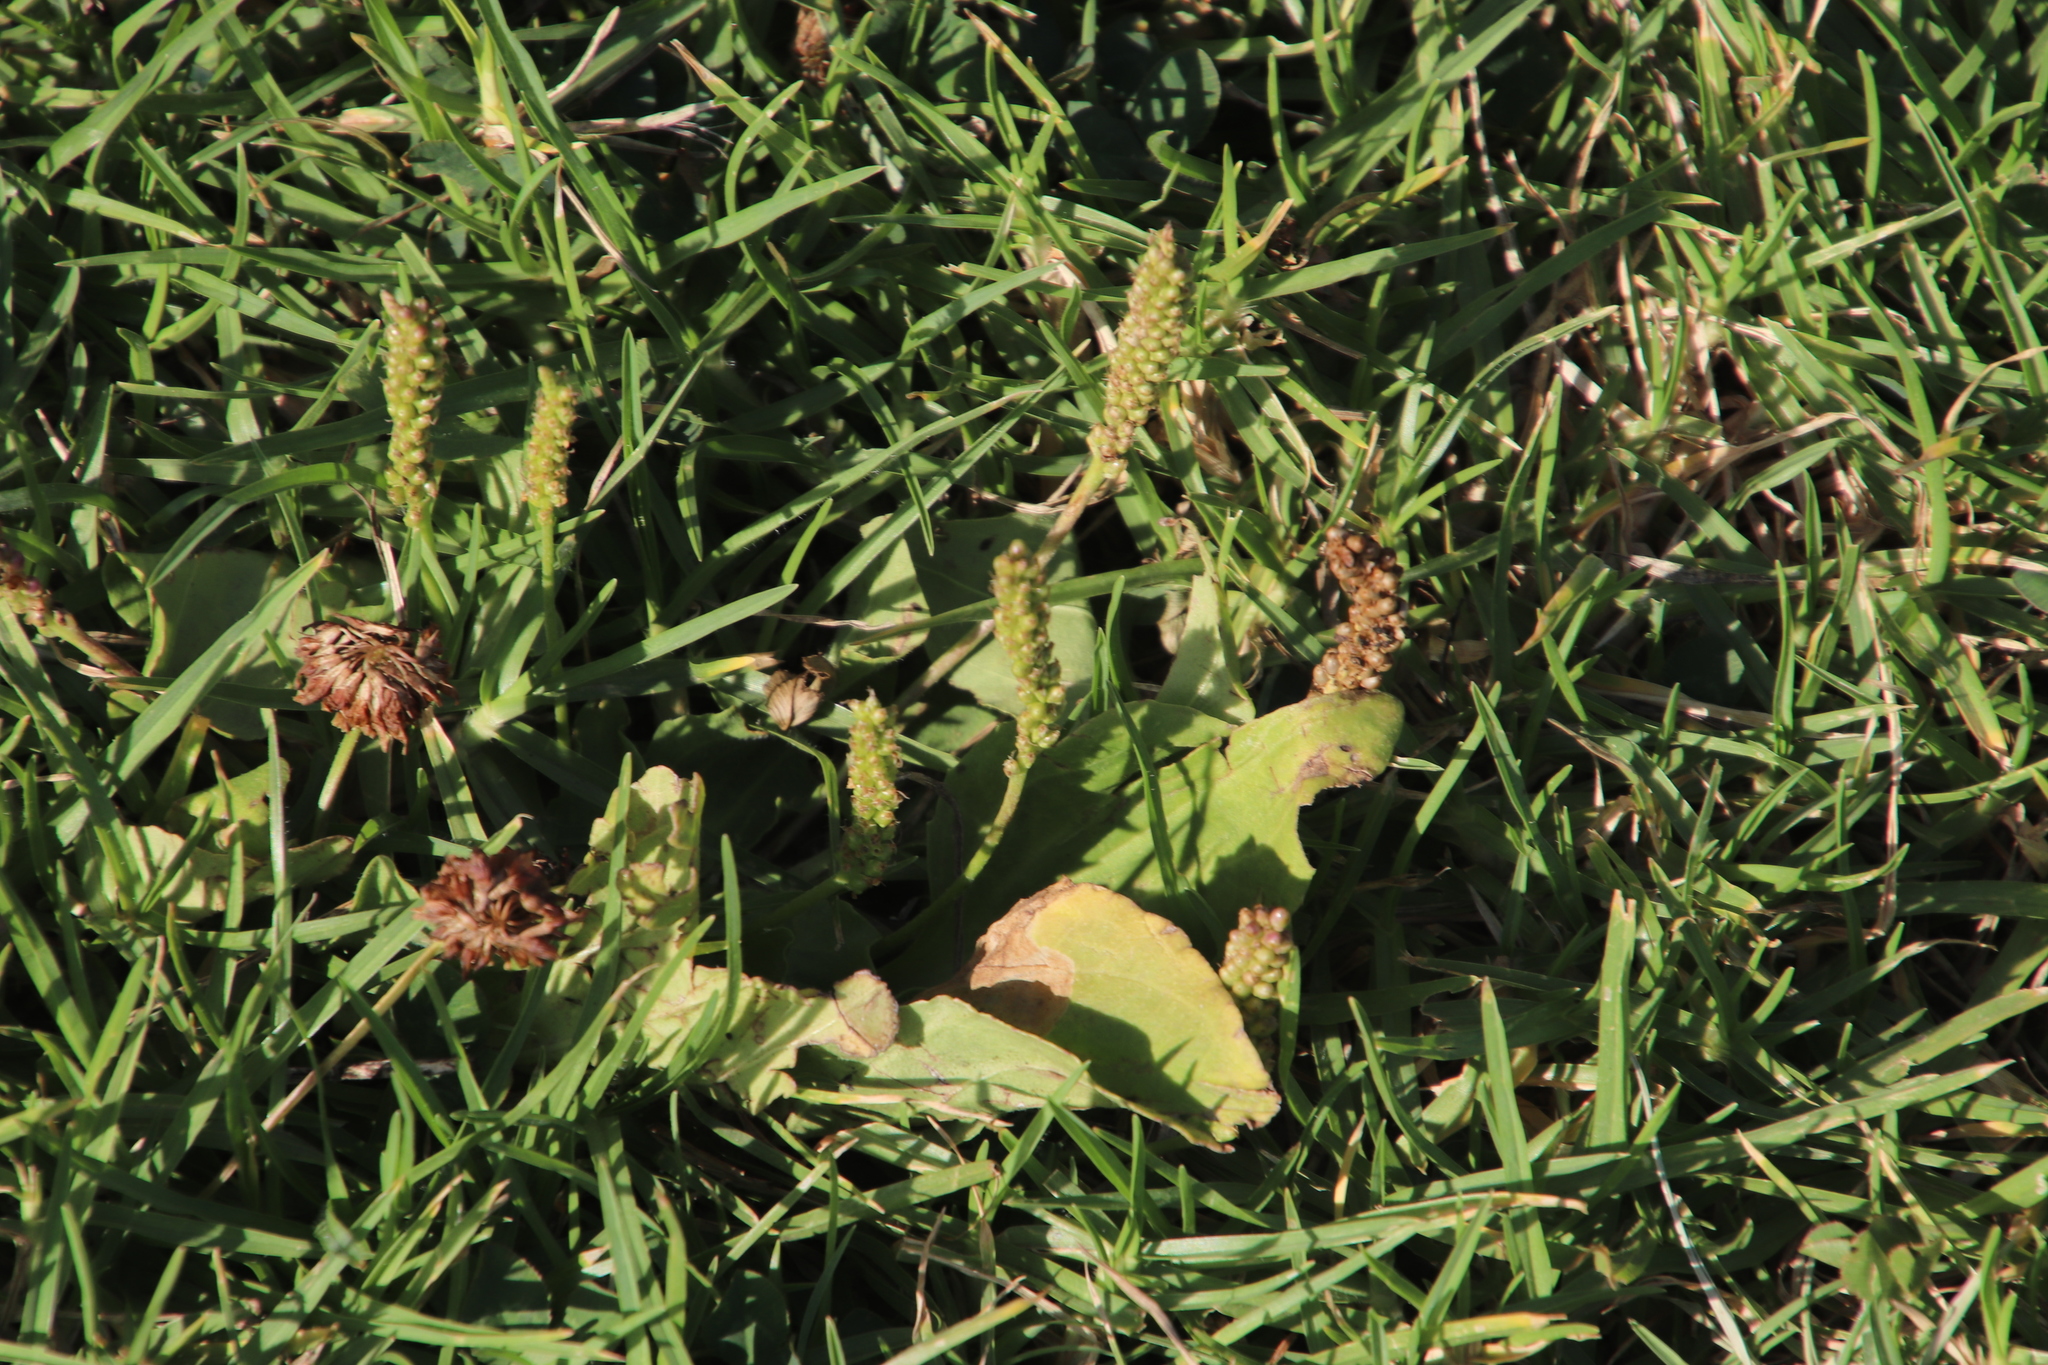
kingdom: Plantae
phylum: Tracheophyta
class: Magnoliopsida
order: Lamiales
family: Plantaginaceae
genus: Plantago
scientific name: Plantago major
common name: Common plantain
